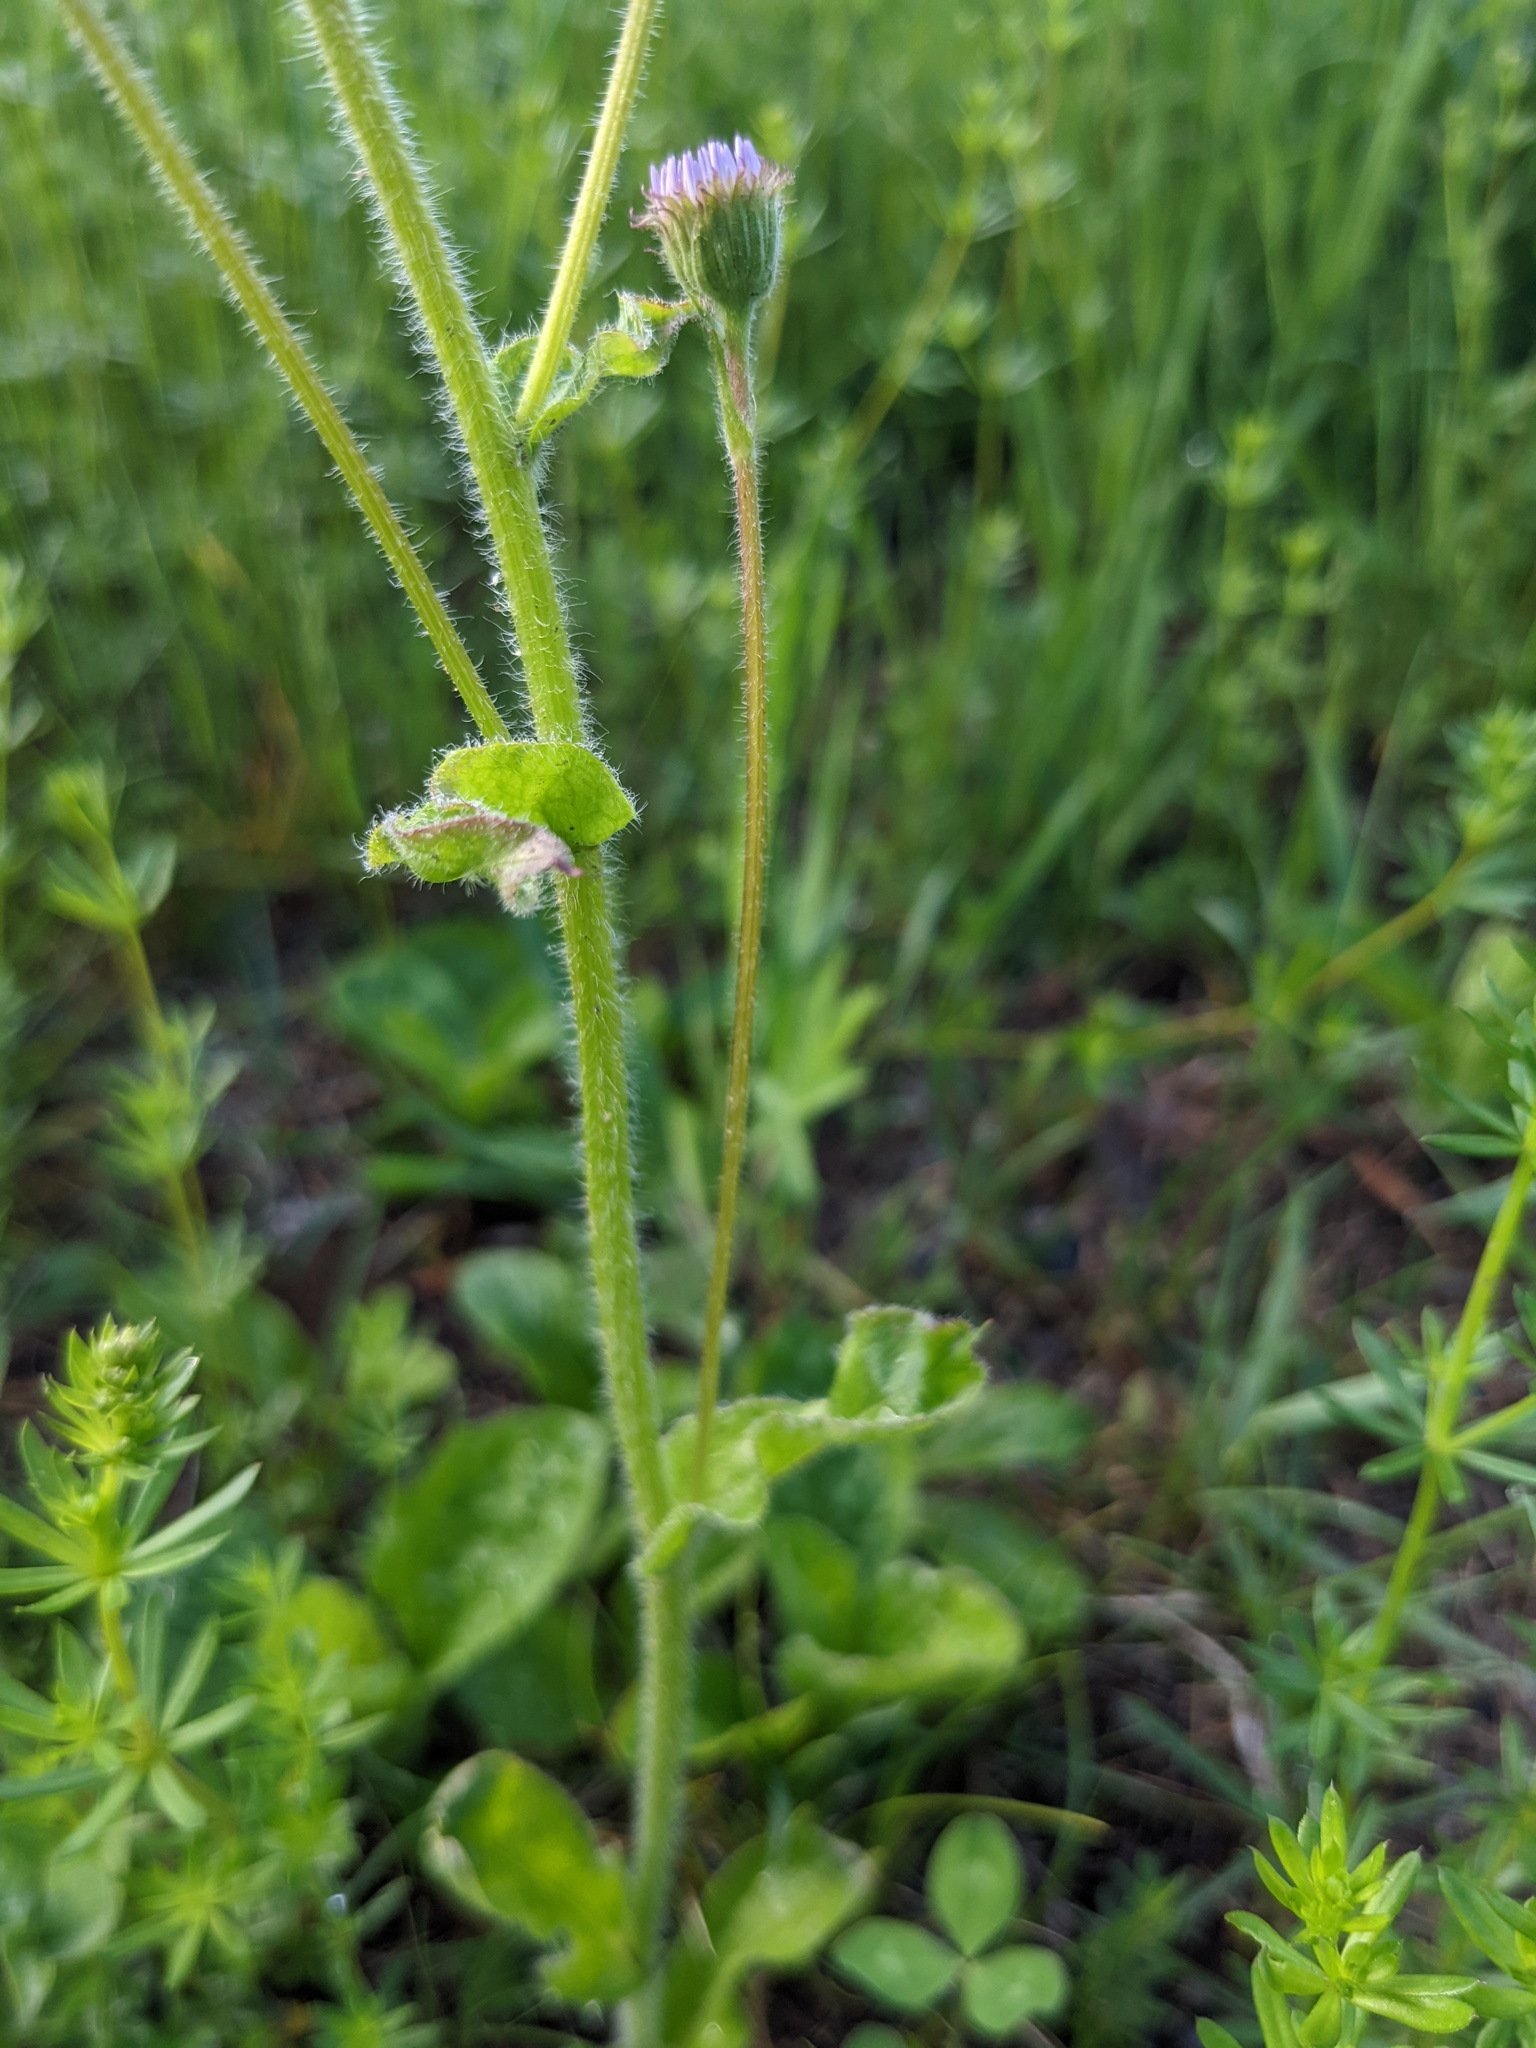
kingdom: Plantae
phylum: Tracheophyta
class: Magnoliopsida
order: Asterales
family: Asteraceae
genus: Erigeron
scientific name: Erigeron pulchellus
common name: Hairy fleabane
